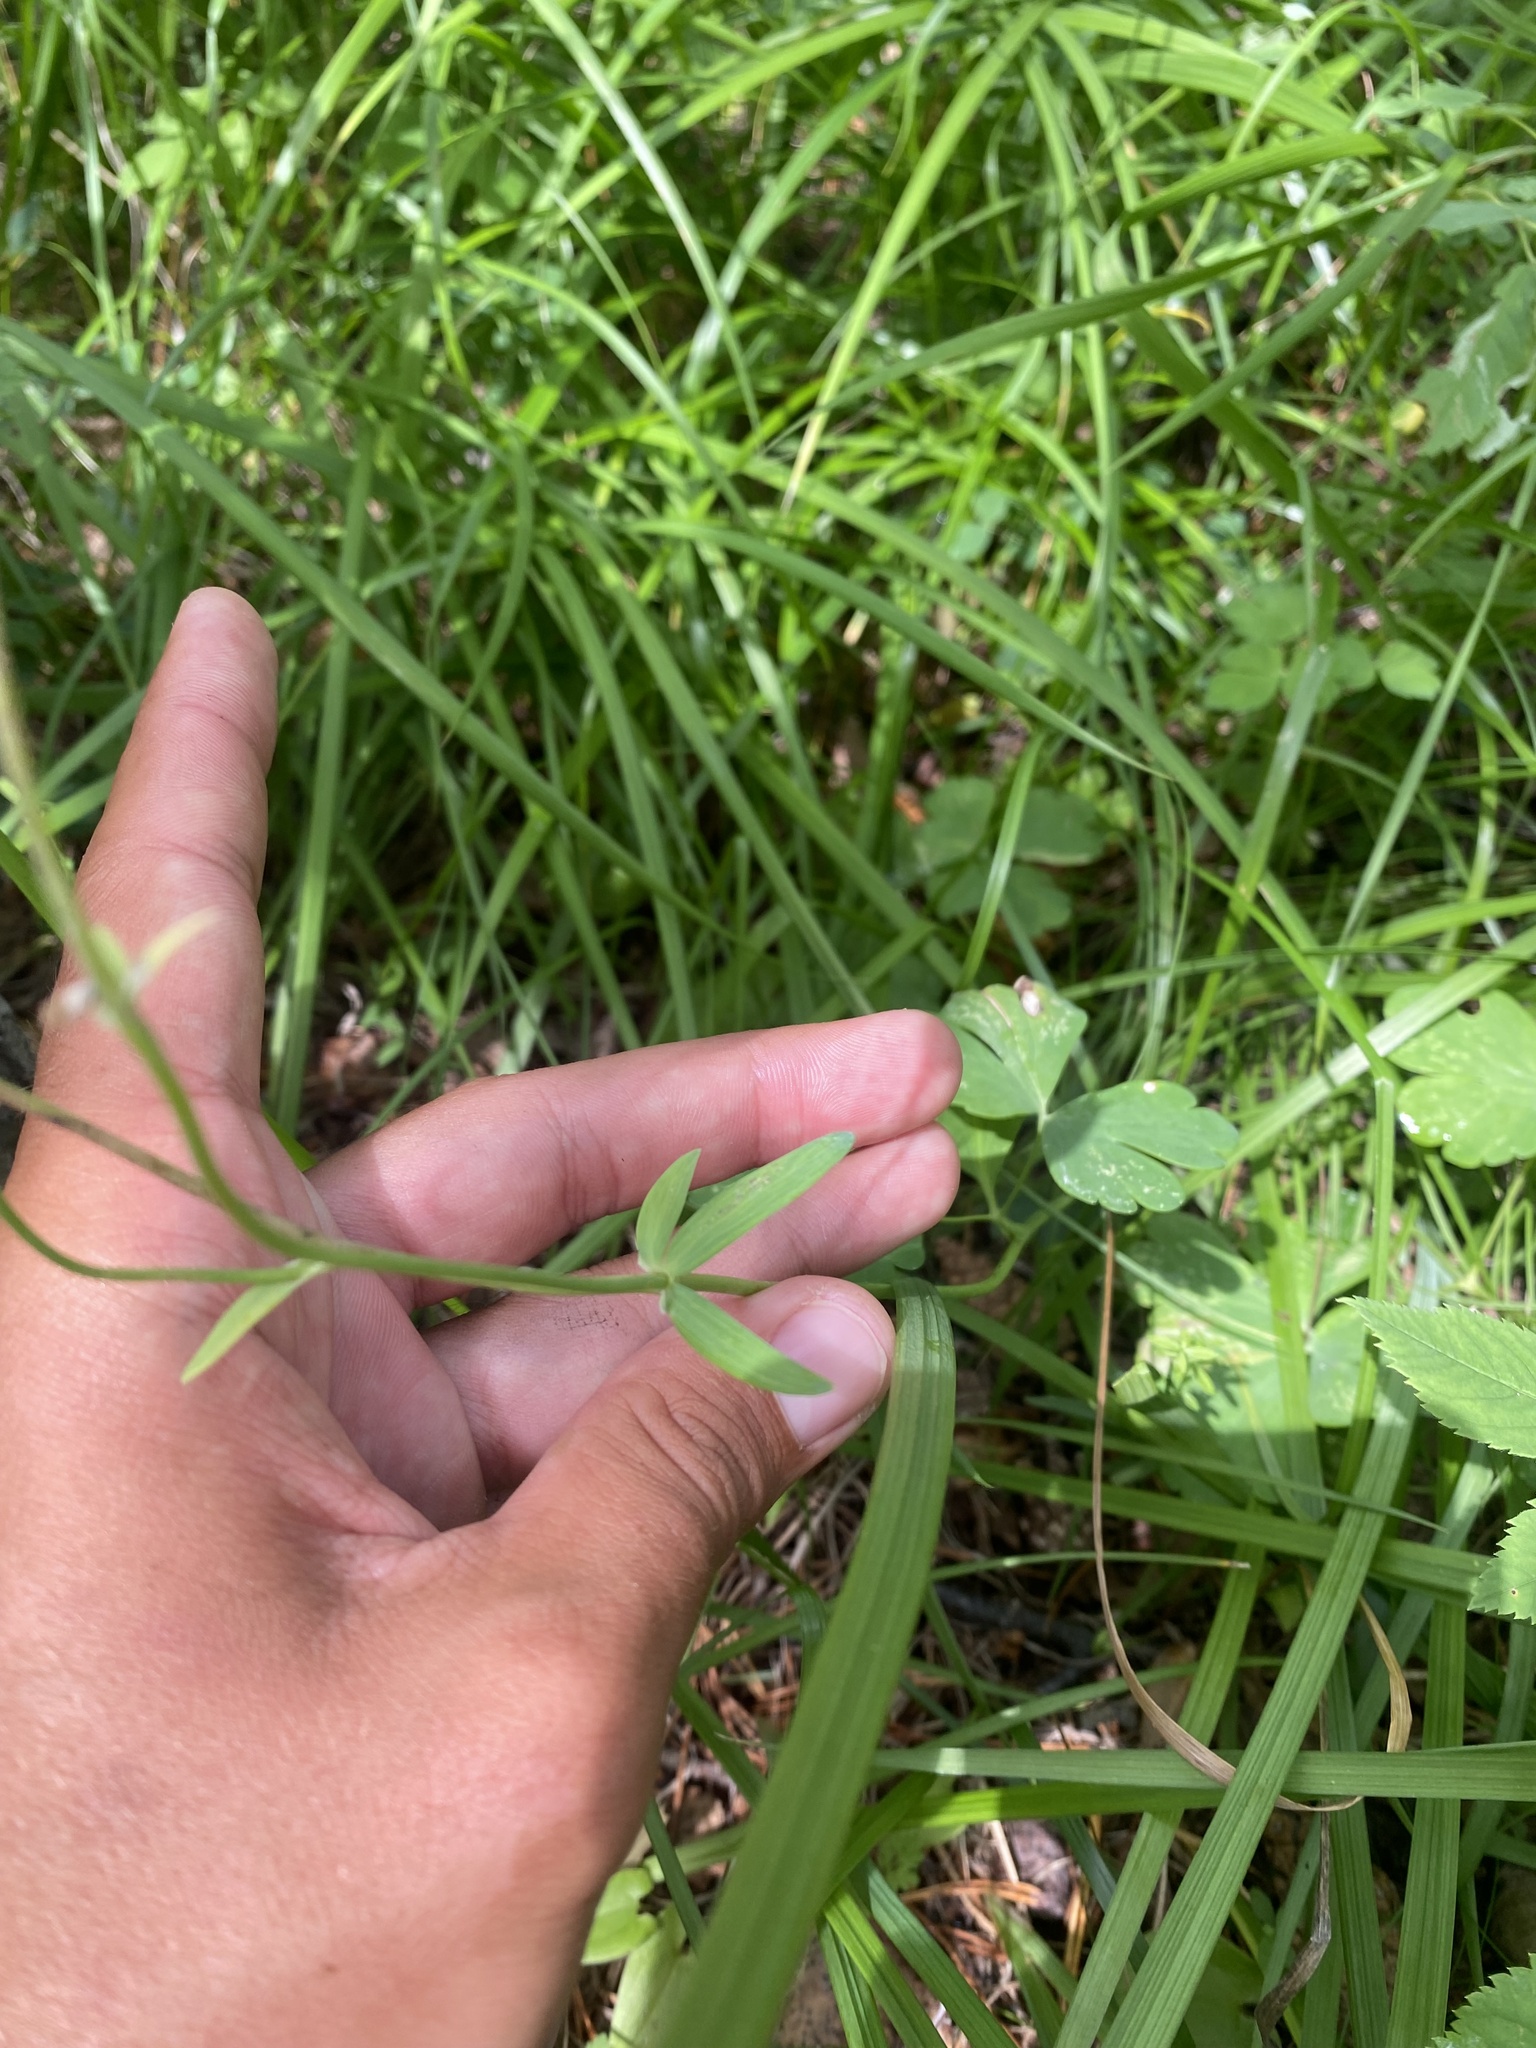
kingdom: Plantae
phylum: Tracheophyta
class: Magnoliopsida
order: Ranunculales
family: Ranunculaceae
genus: Aquilegia
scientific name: Aquilegia sibirica
